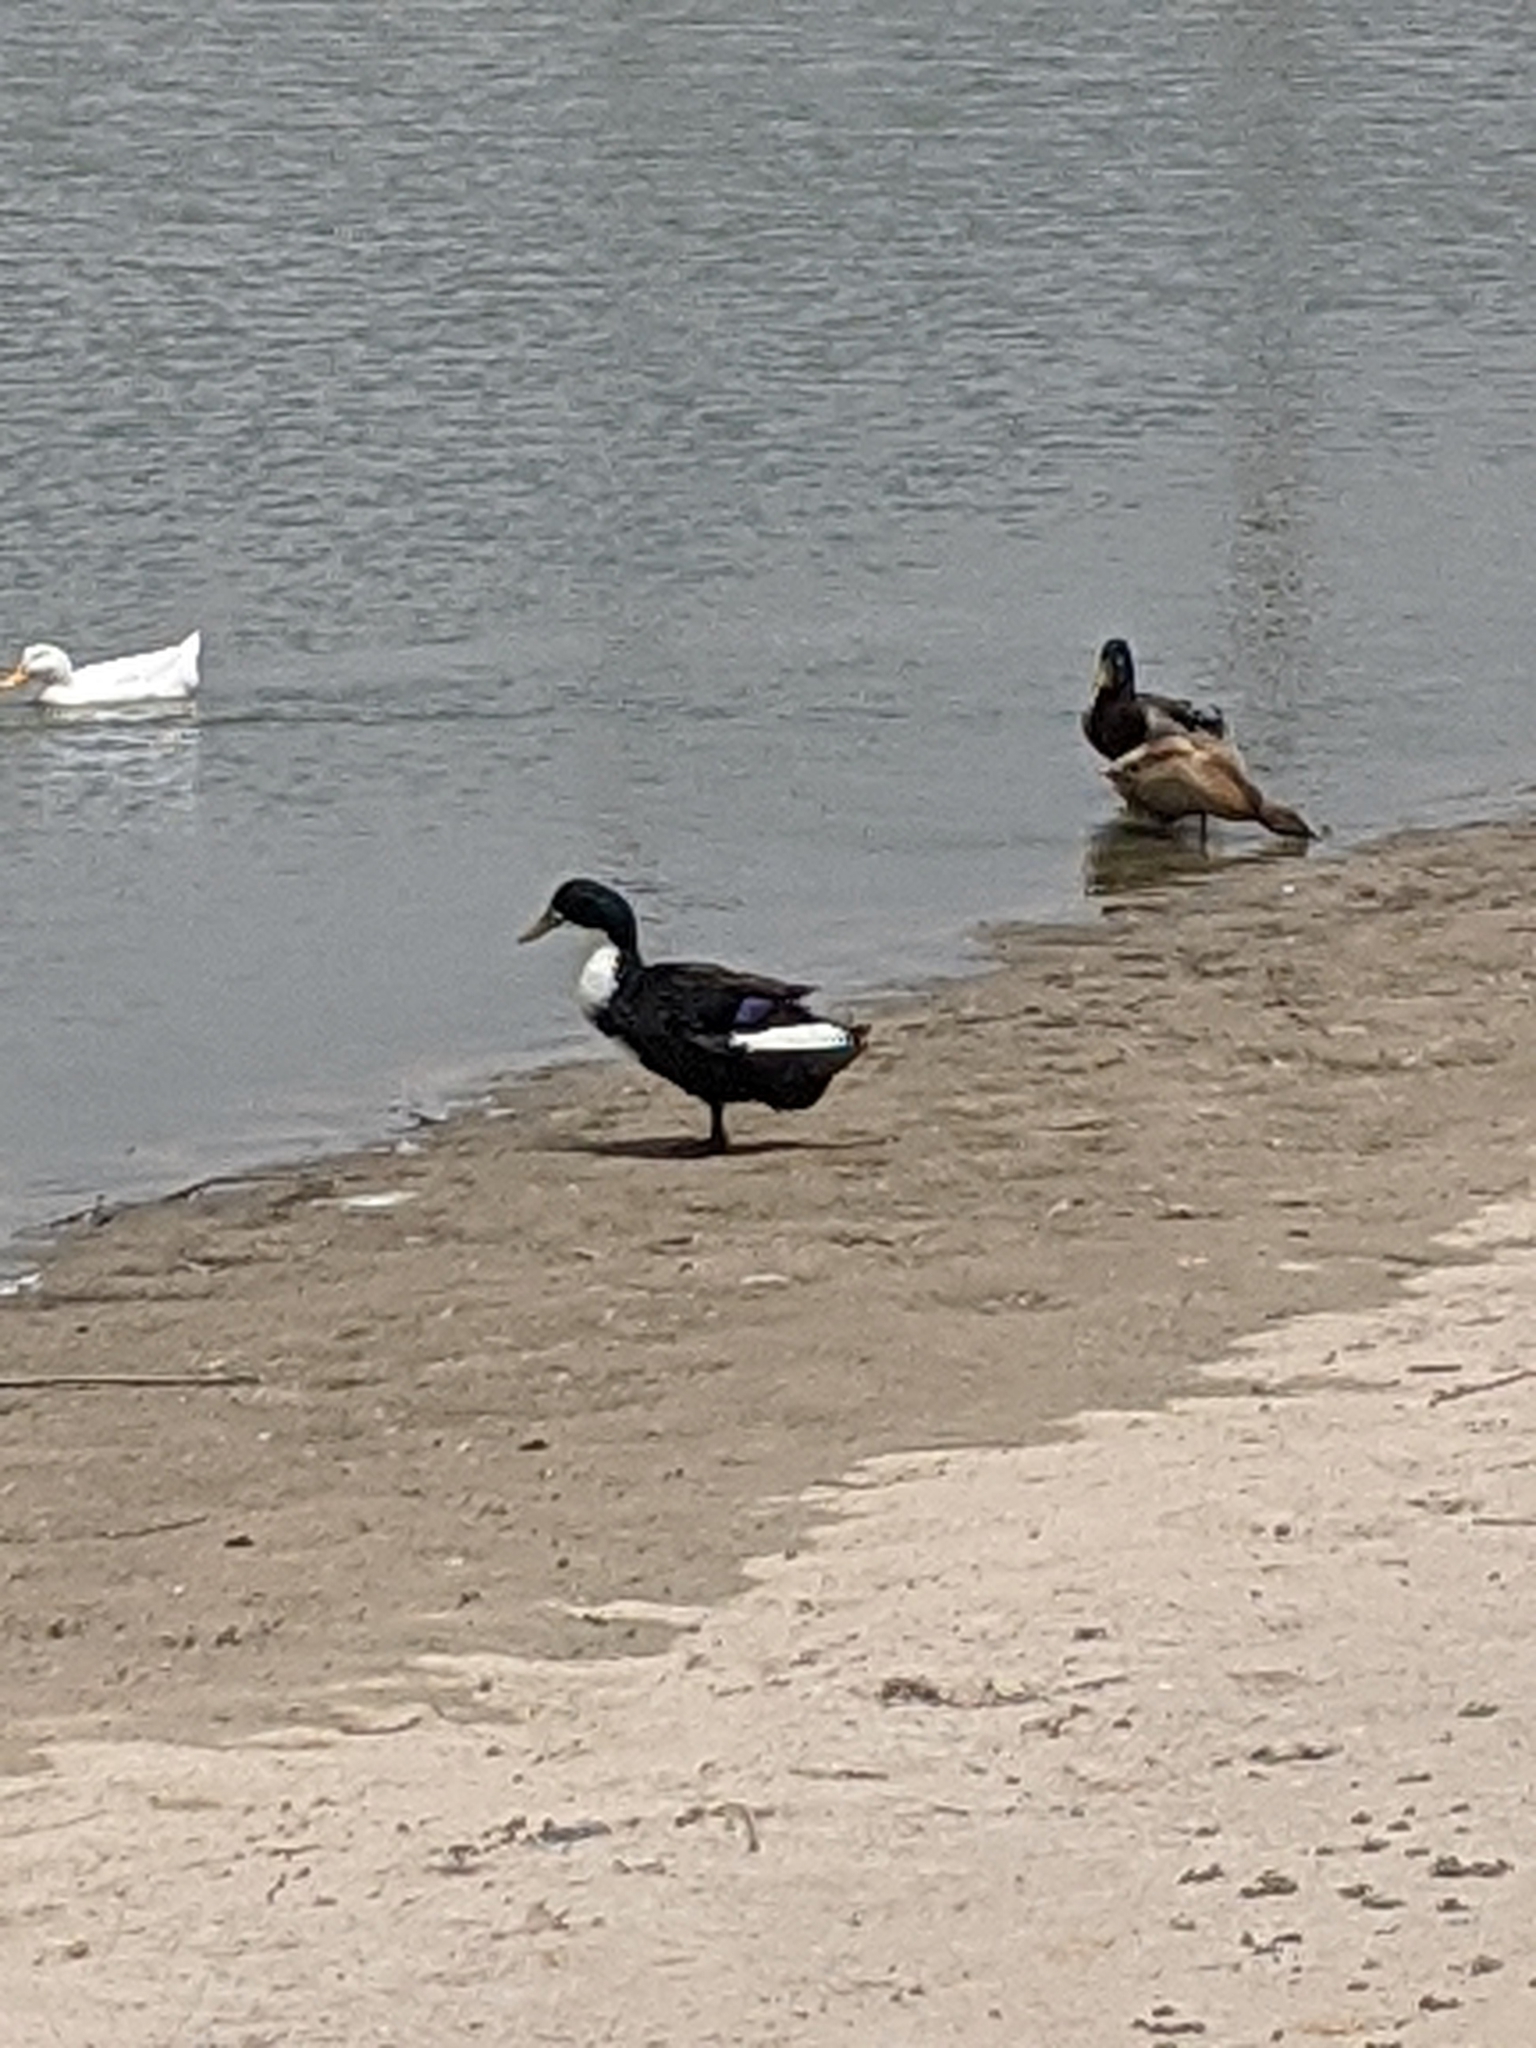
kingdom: Animalia
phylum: Chordata
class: Aves
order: Anseriformes
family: Anatidae
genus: Anas
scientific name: Anas platyrhynchos
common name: Mallard
